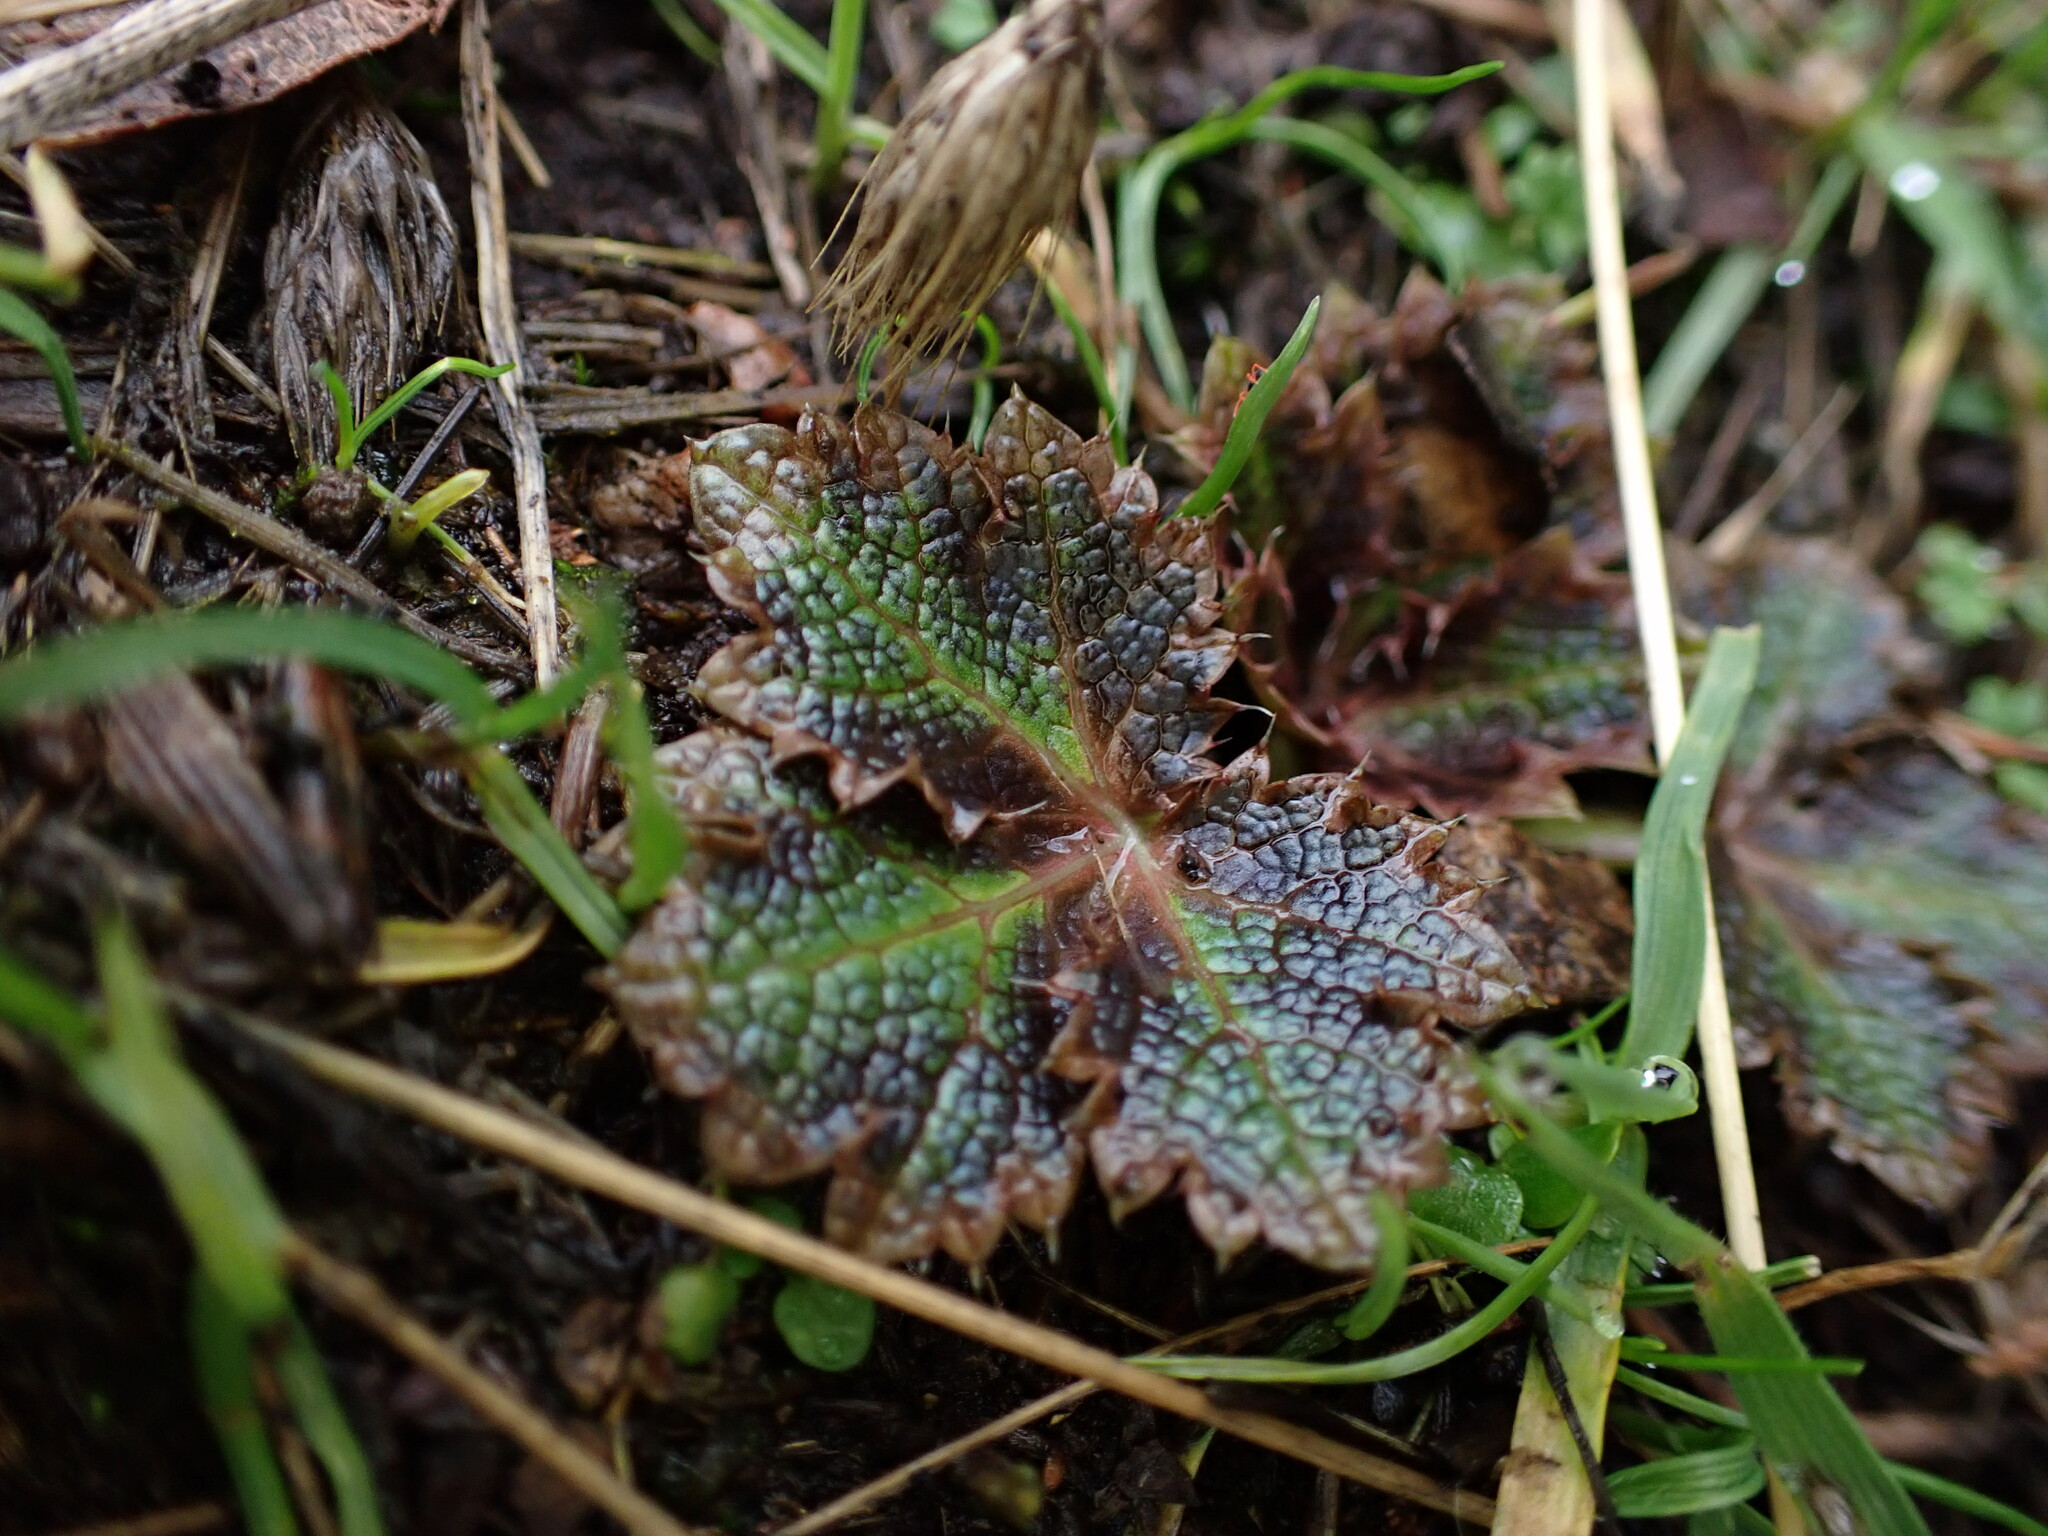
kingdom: Plantae
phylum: Tracheophyta
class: Magnoliopsida
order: Apiales
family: Apiaceae
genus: Sanicula
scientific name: Sanicula crassicaulis
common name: Western snakeroot
